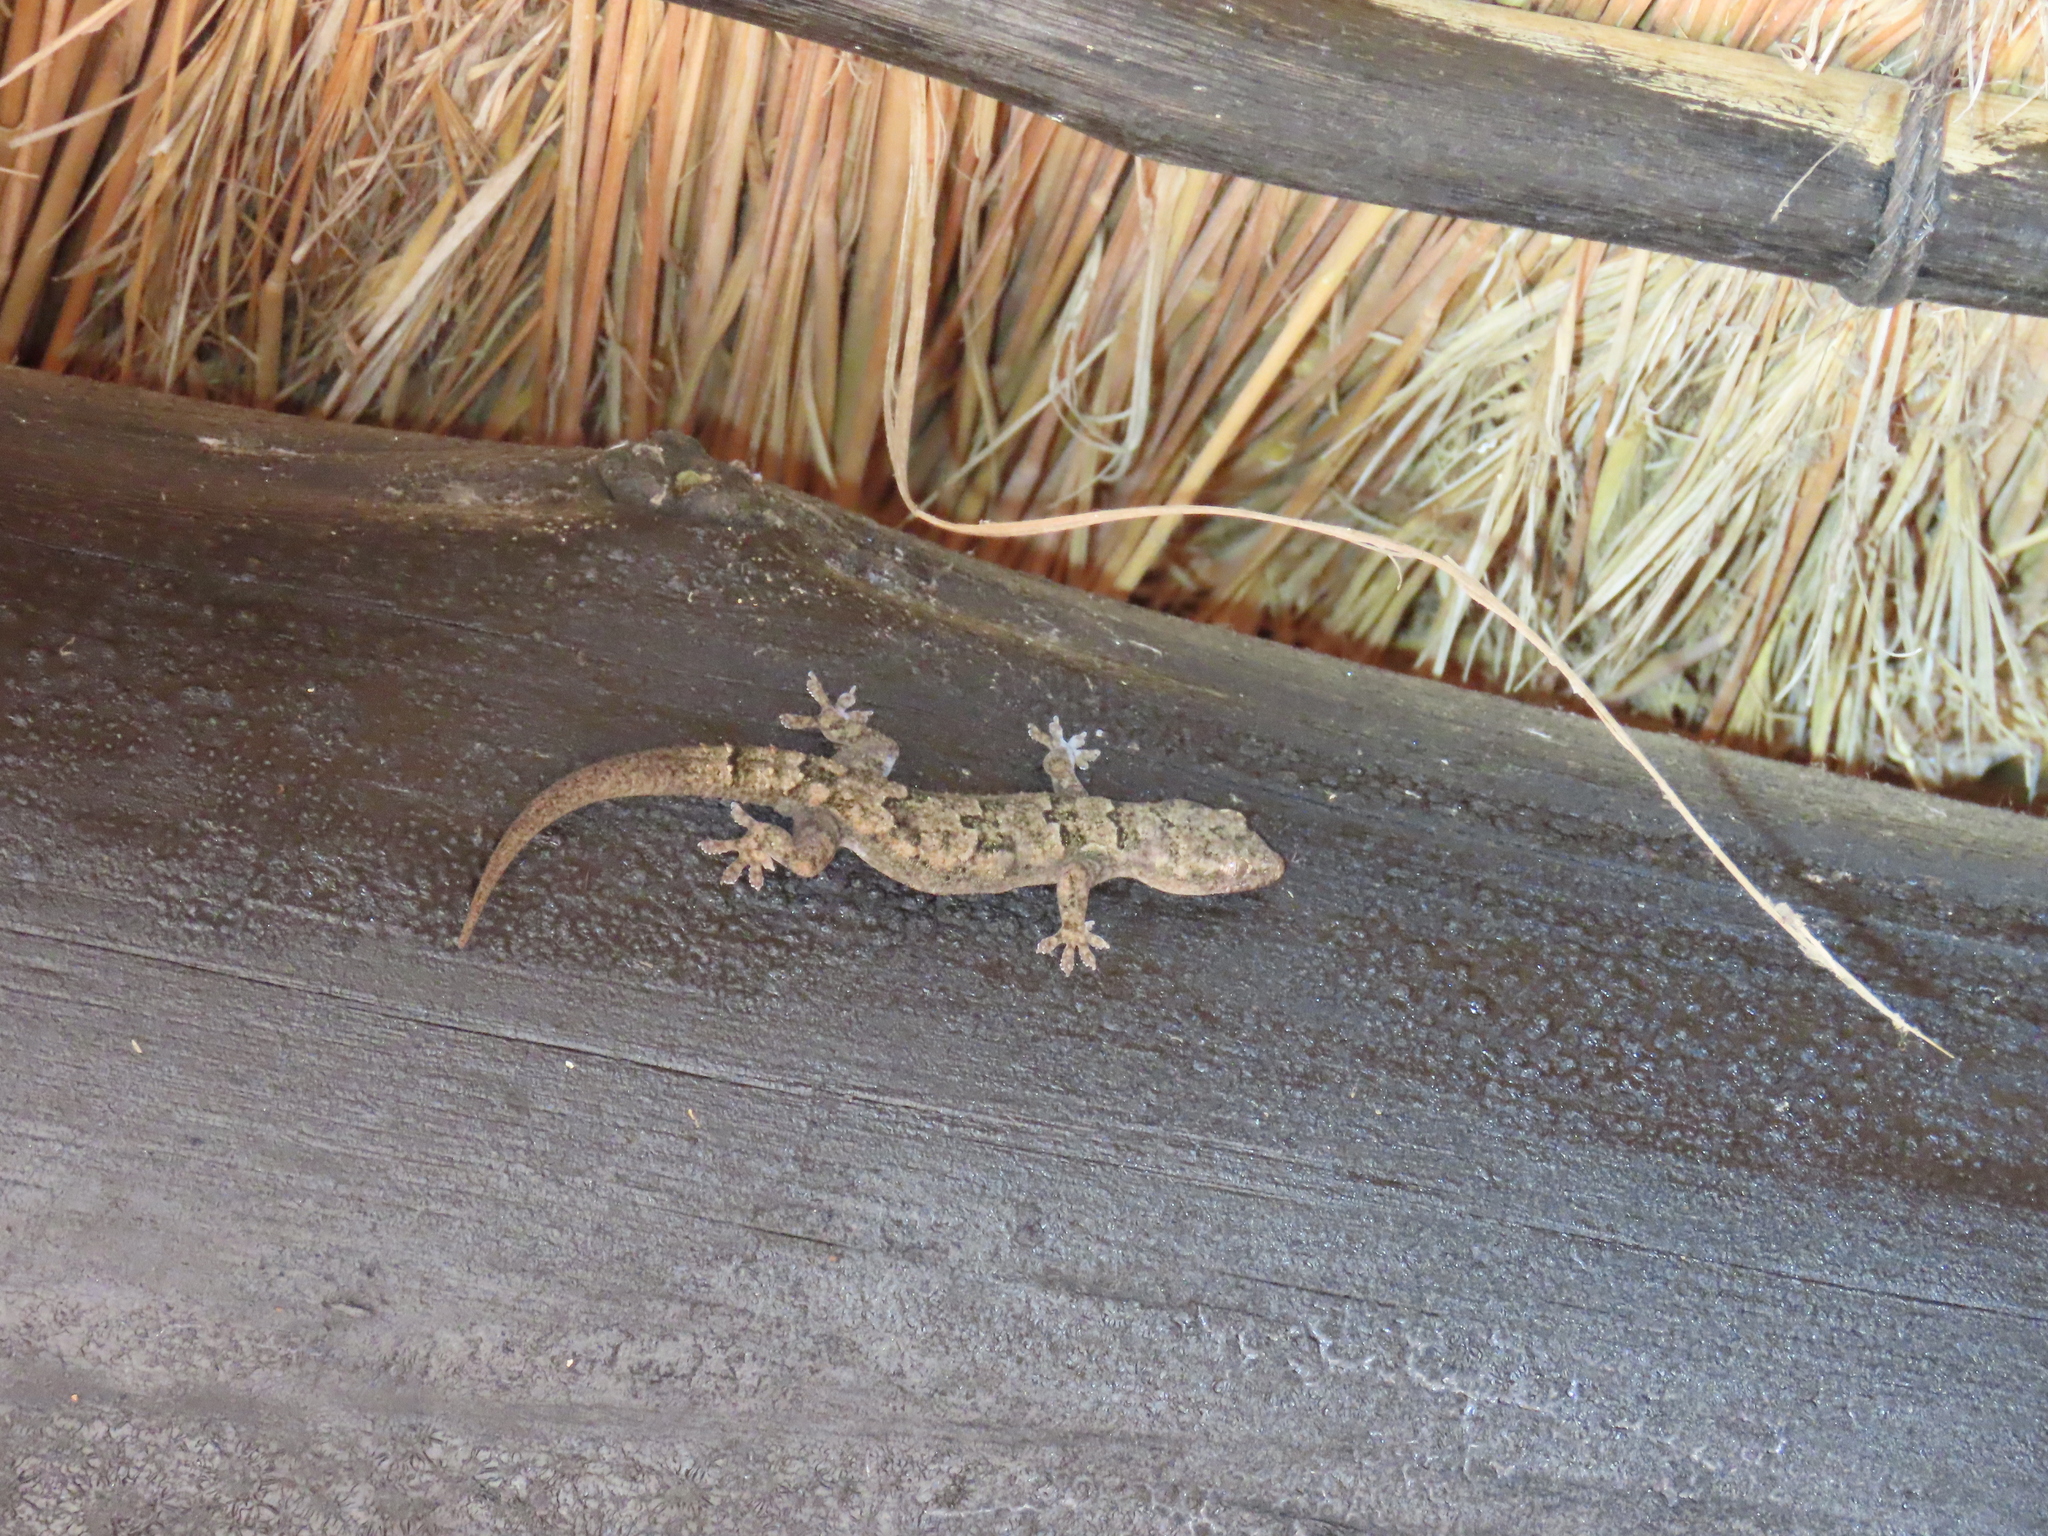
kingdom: Animalia
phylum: Chordata
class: Squamata
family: Gekkonidae
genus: Hemidactylus
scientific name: Hemidactylus mabouia
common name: House gecko
